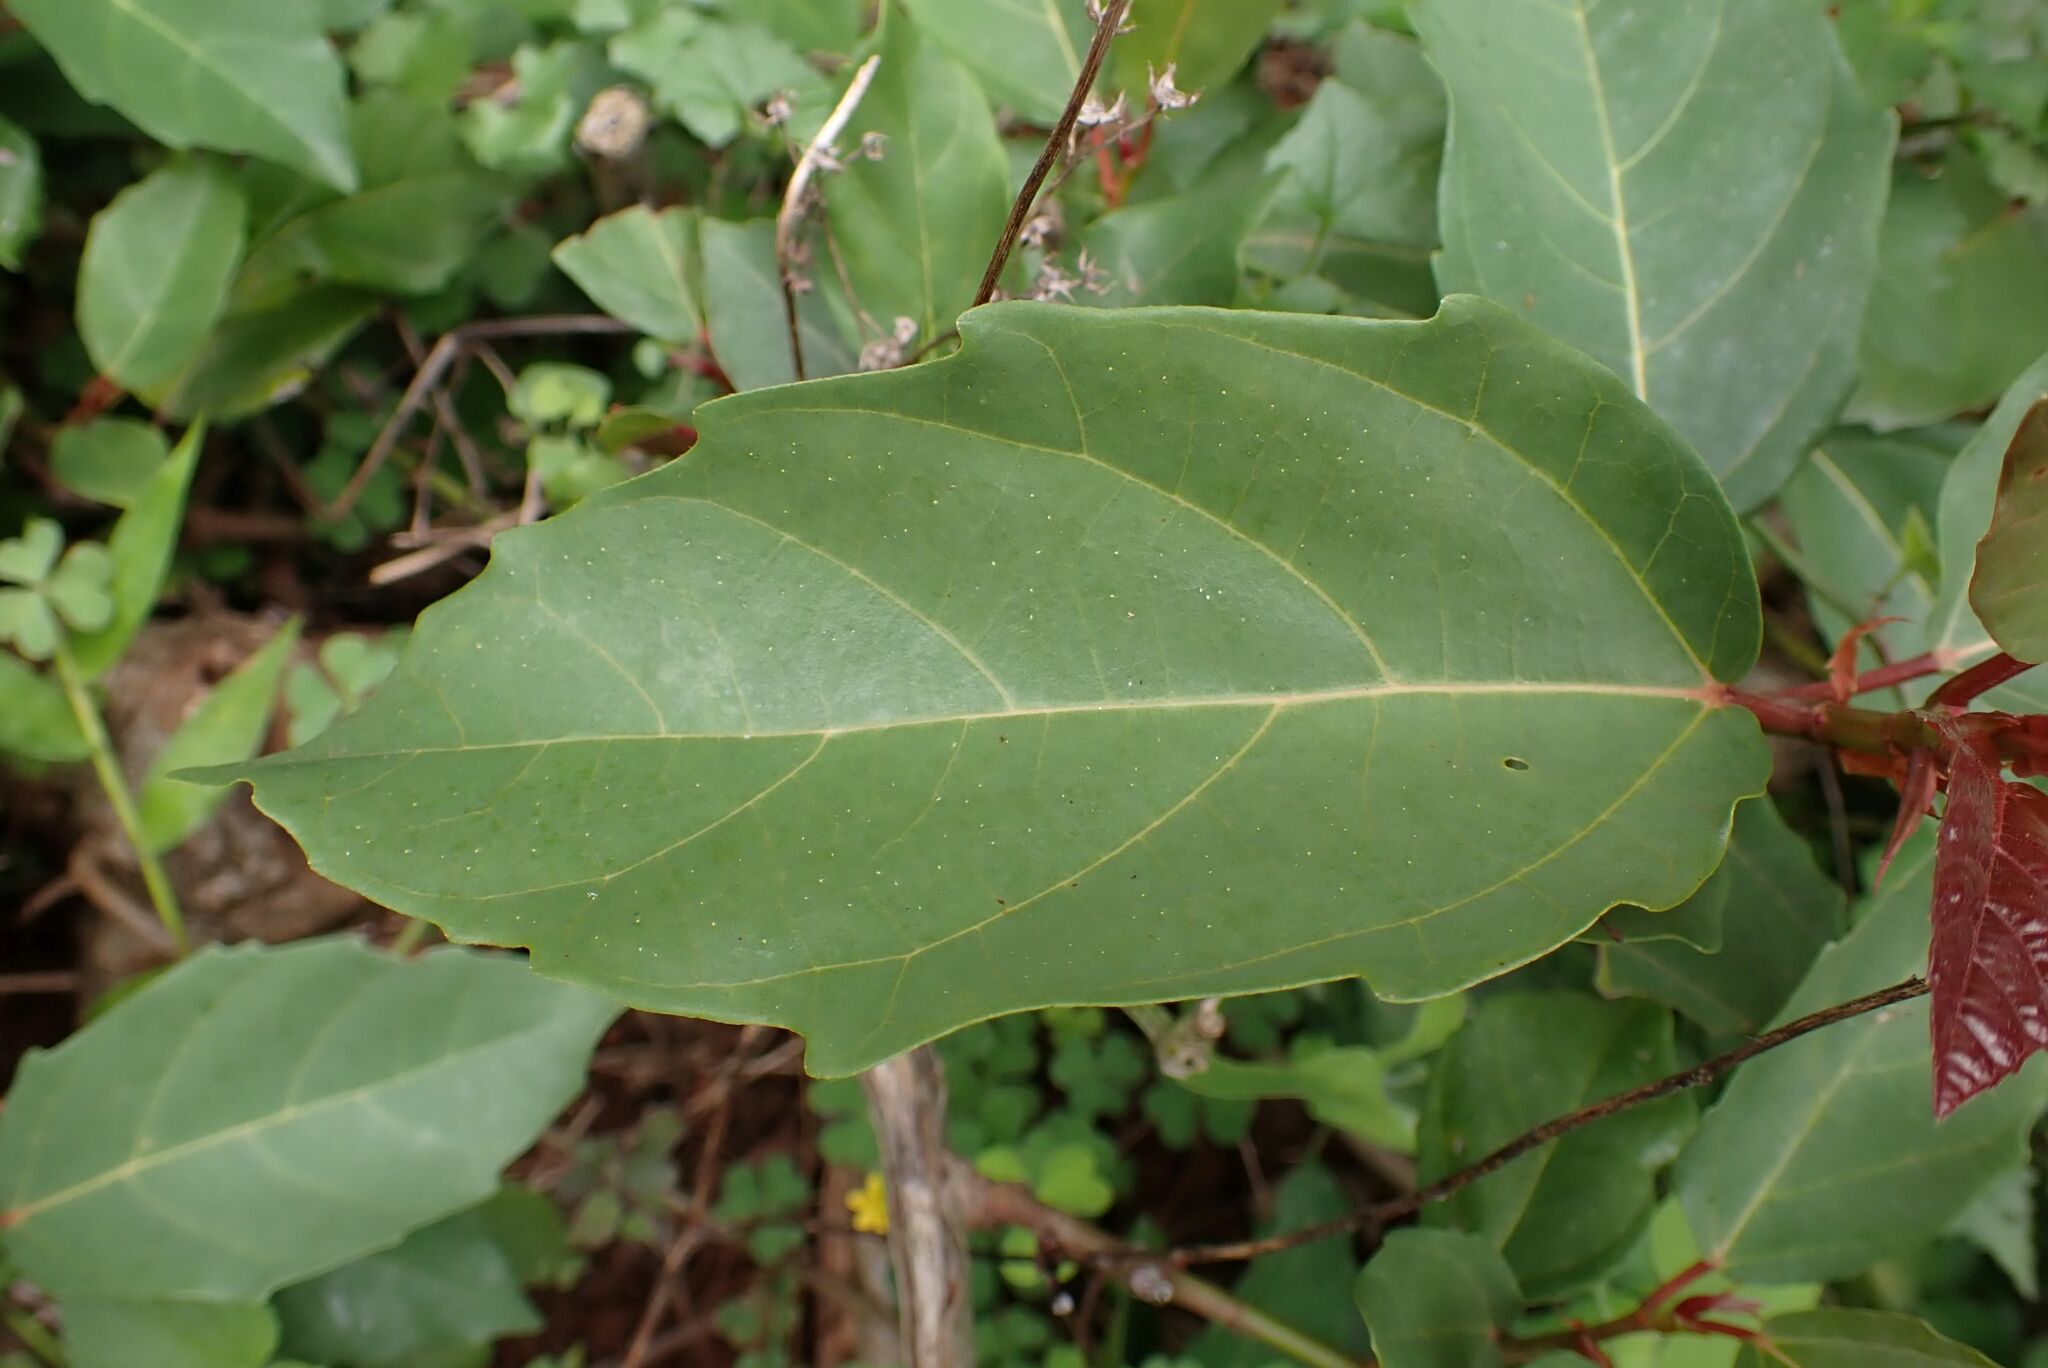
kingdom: Plantae
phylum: Tracheophyta
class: Magnoliopsida
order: Rosales
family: Moraceae
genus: Ficus
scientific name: Ficus sur
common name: Cape fig
